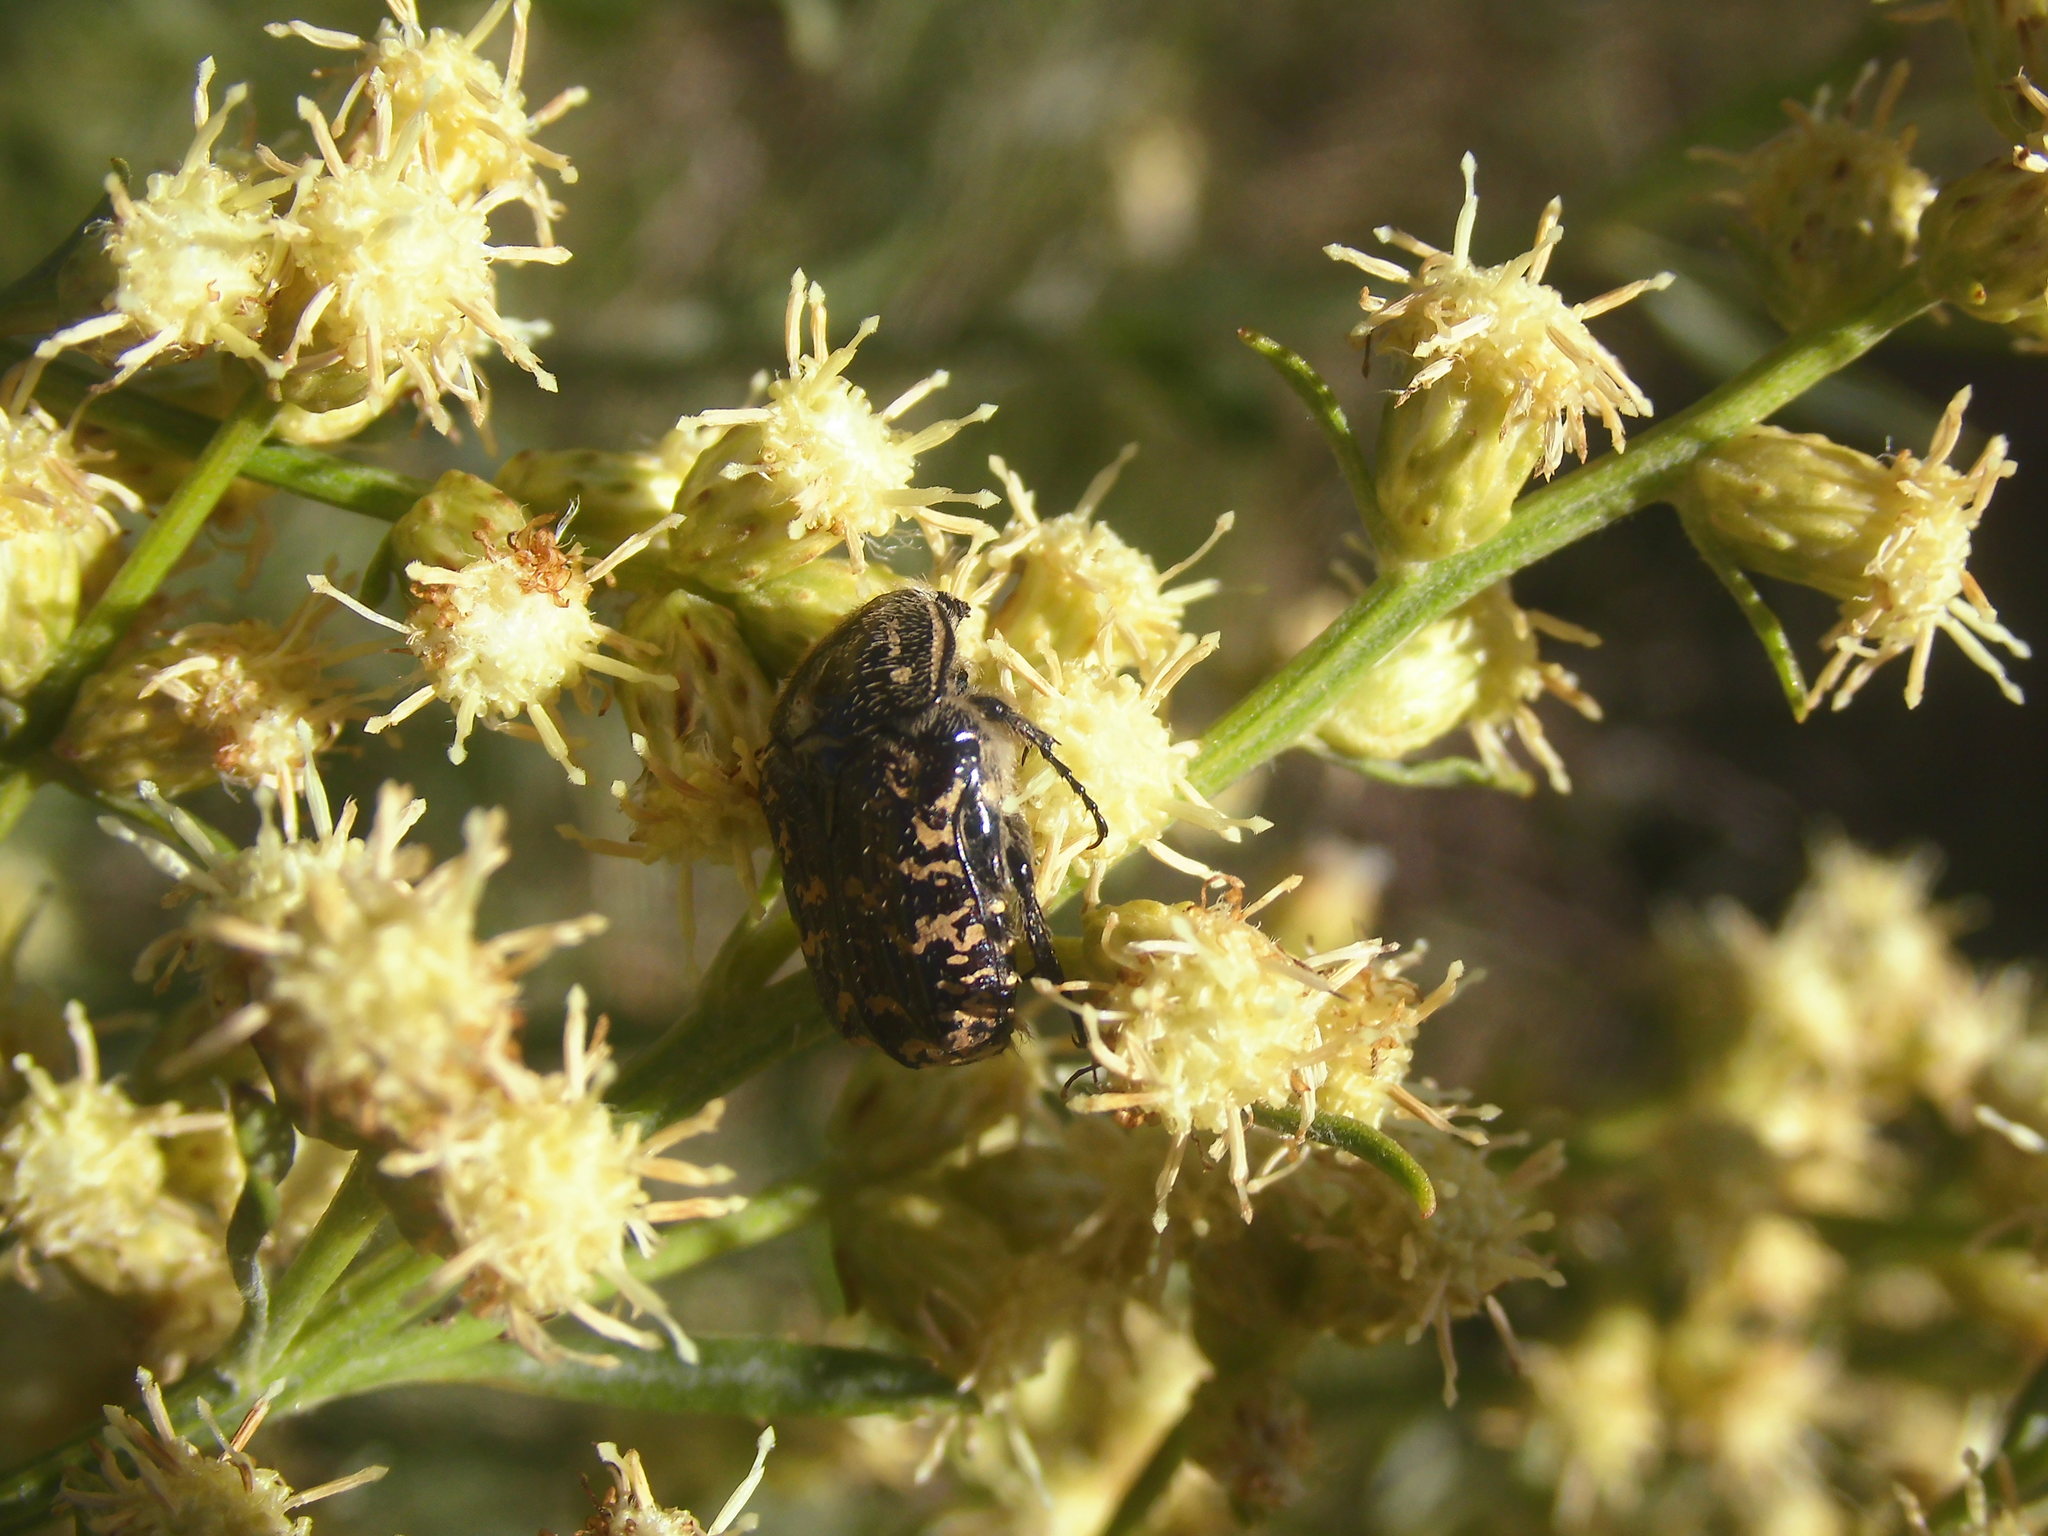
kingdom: Animalia
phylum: Arthropoda
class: Insecta
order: Coleoptera
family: Scarabaeidae
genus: Euphoria
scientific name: Euphoria lurida
